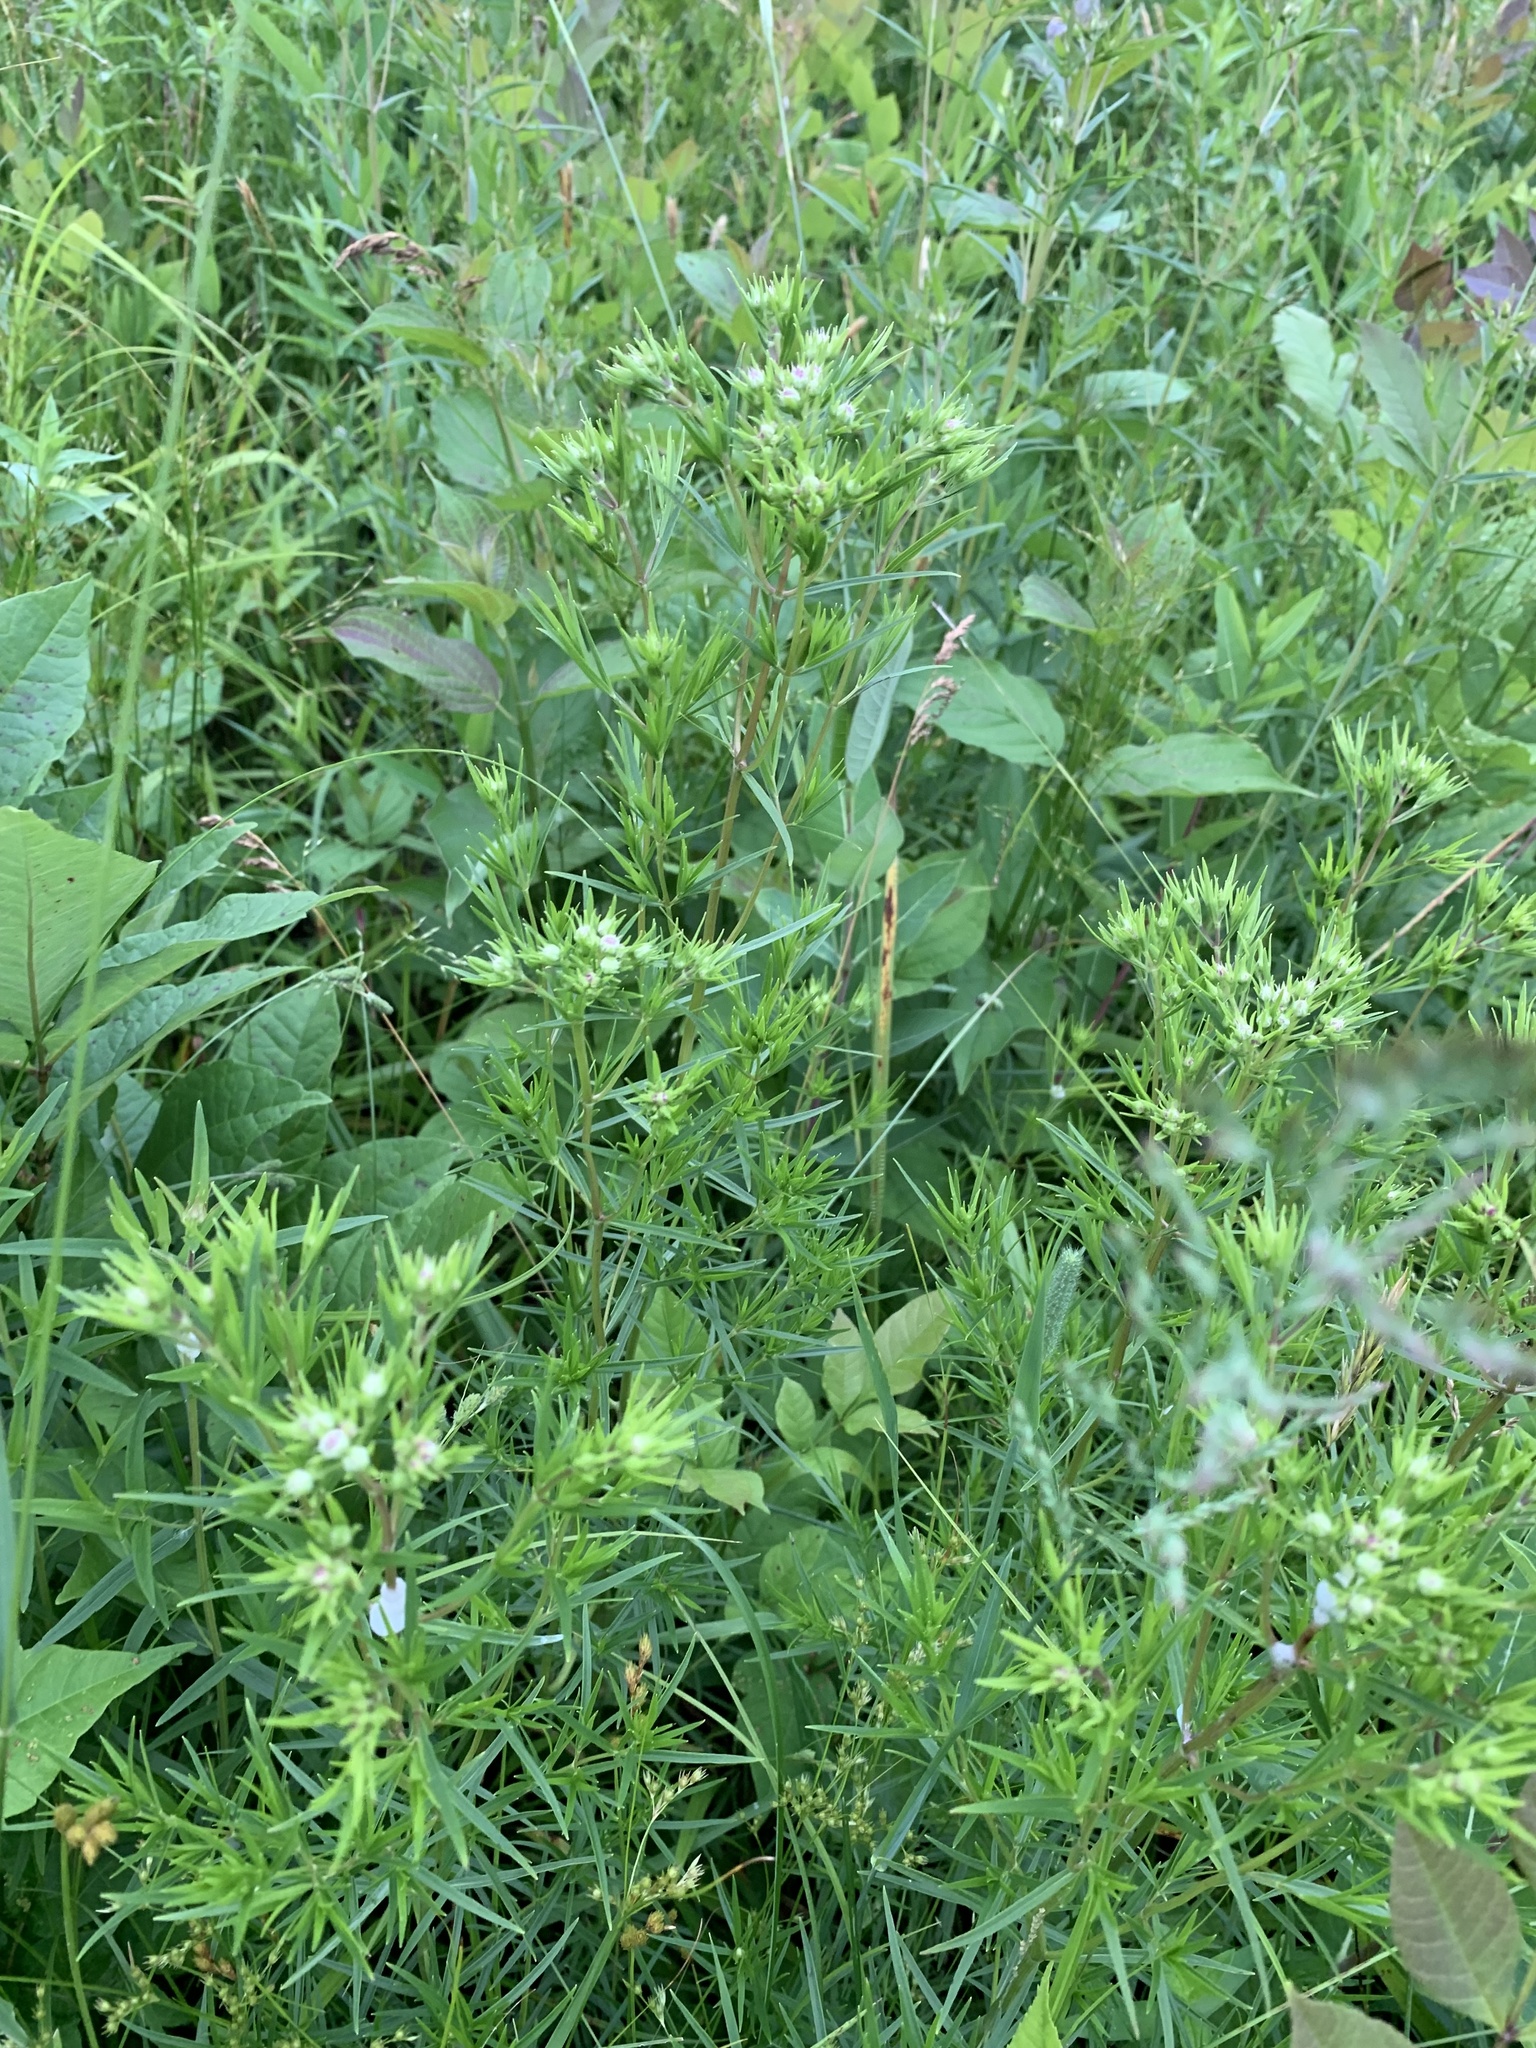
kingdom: Plantae
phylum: Tracheophyta
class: Magnoliopsida
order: Lamiales
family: Lamiaceae
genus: Pycnanthemum
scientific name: Pycnanthemum tenuifolium
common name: Narrow-leaf mountain-mint
